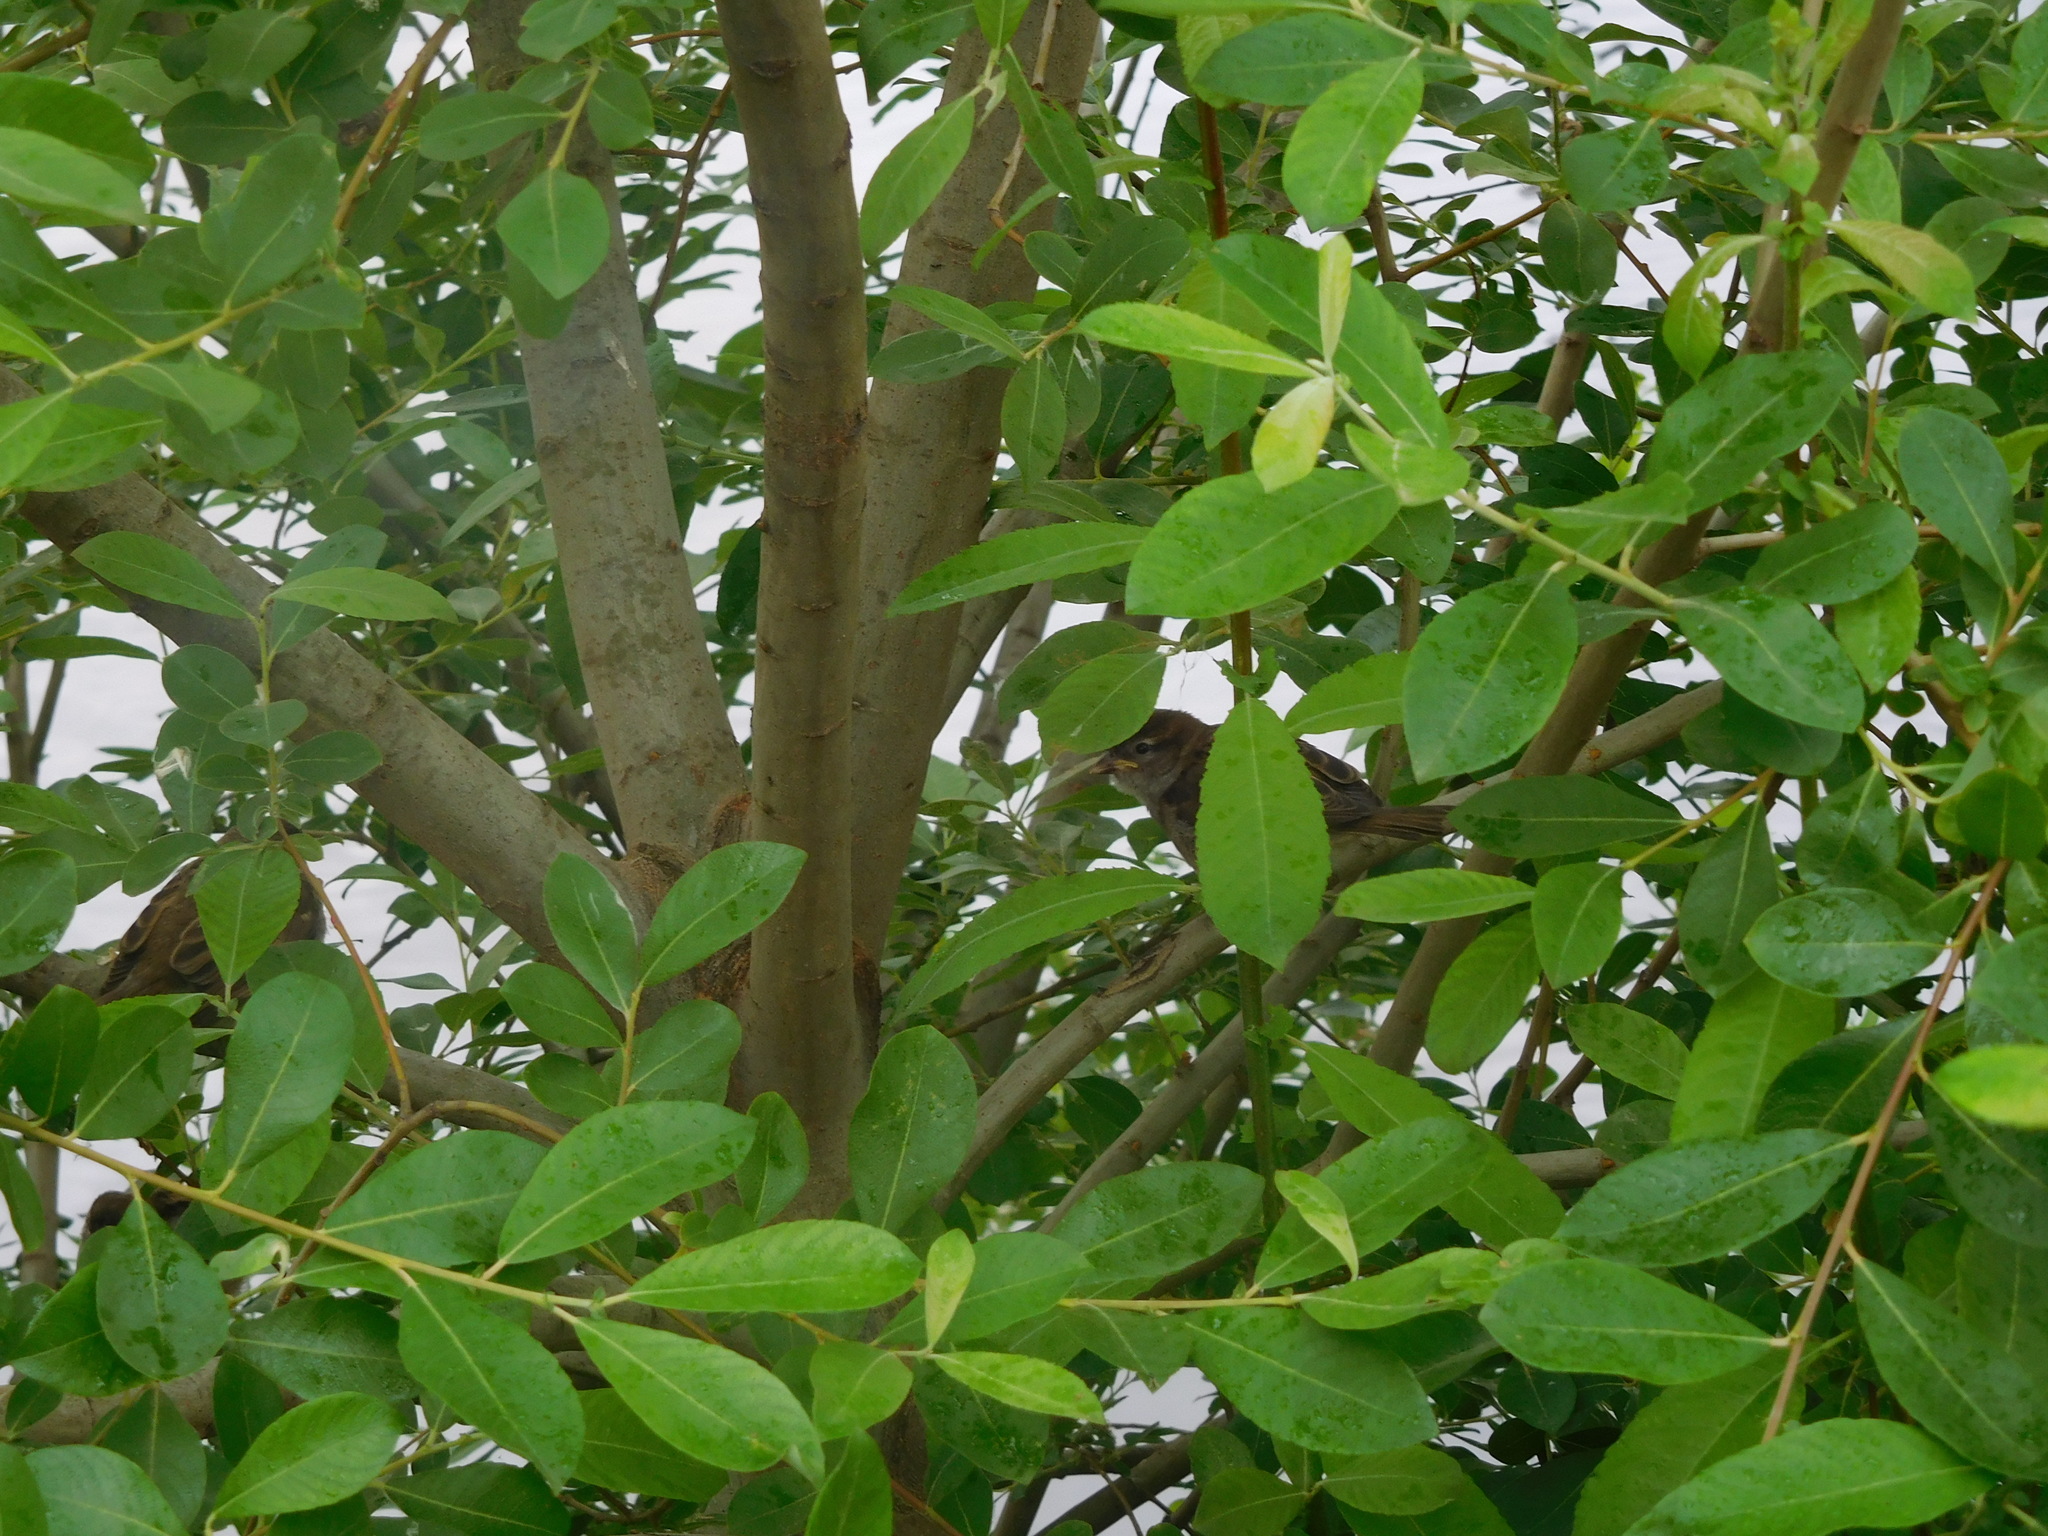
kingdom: Animalia
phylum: Chordata
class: Aves
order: Passeriformes
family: Passeridae
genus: Passer
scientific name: Passer domesticus
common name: House sparrow
